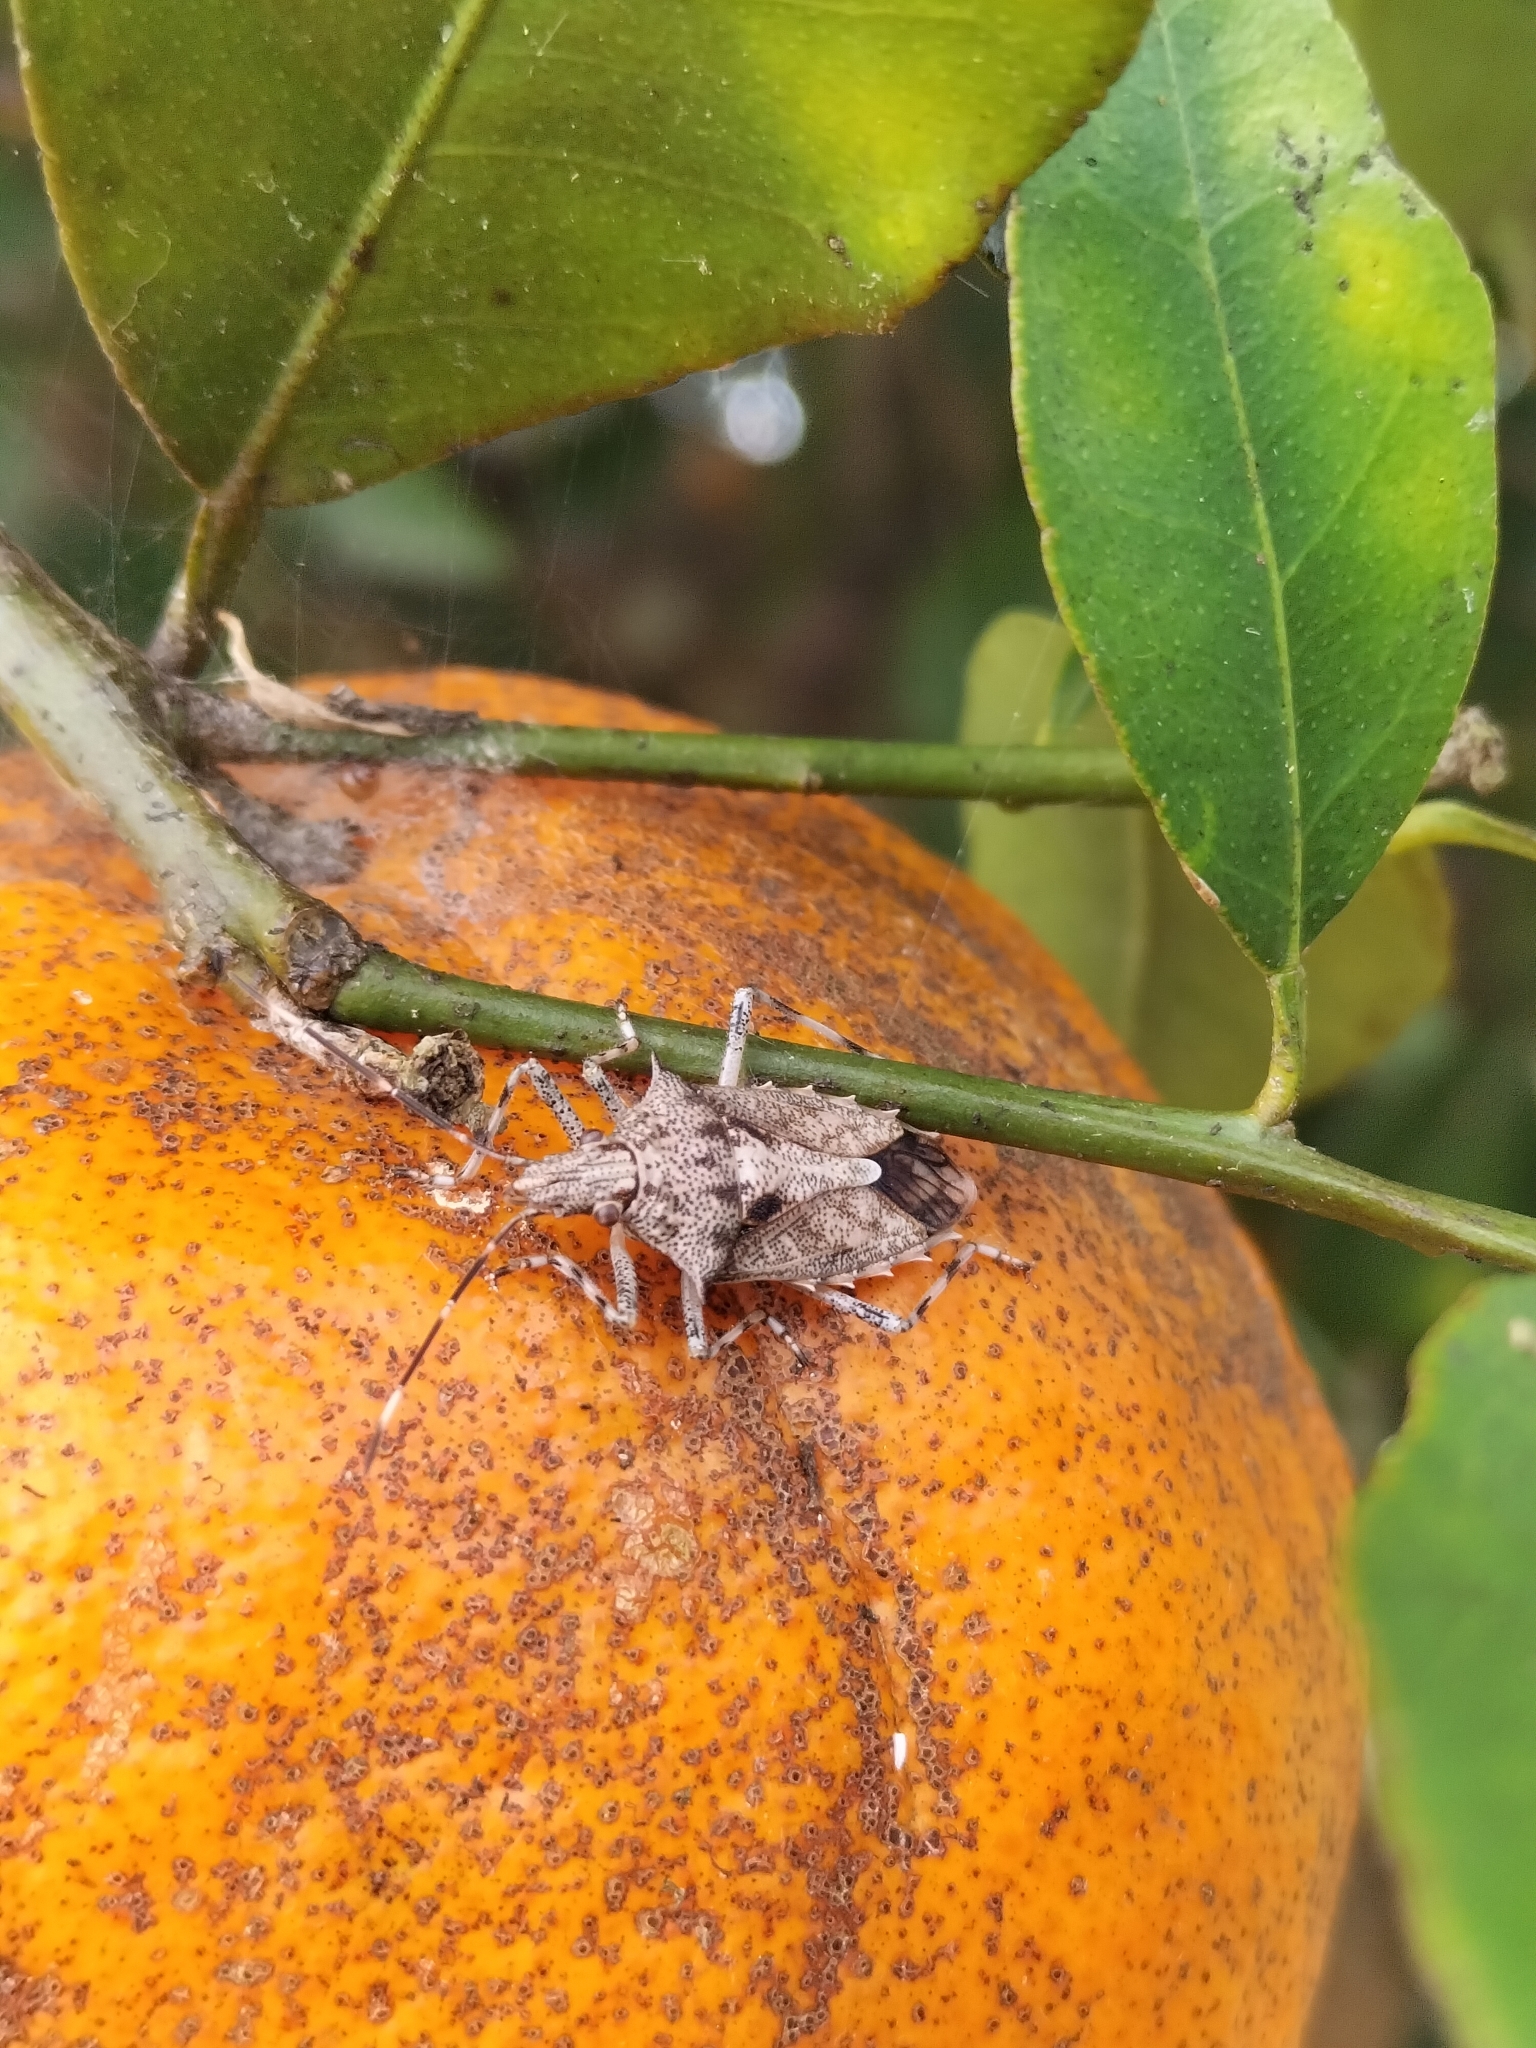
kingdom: Animalia
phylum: Arthropoda
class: Insecta
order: Hemiptera
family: Pentatomidae
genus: Bromocoris
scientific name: Bromocoris
